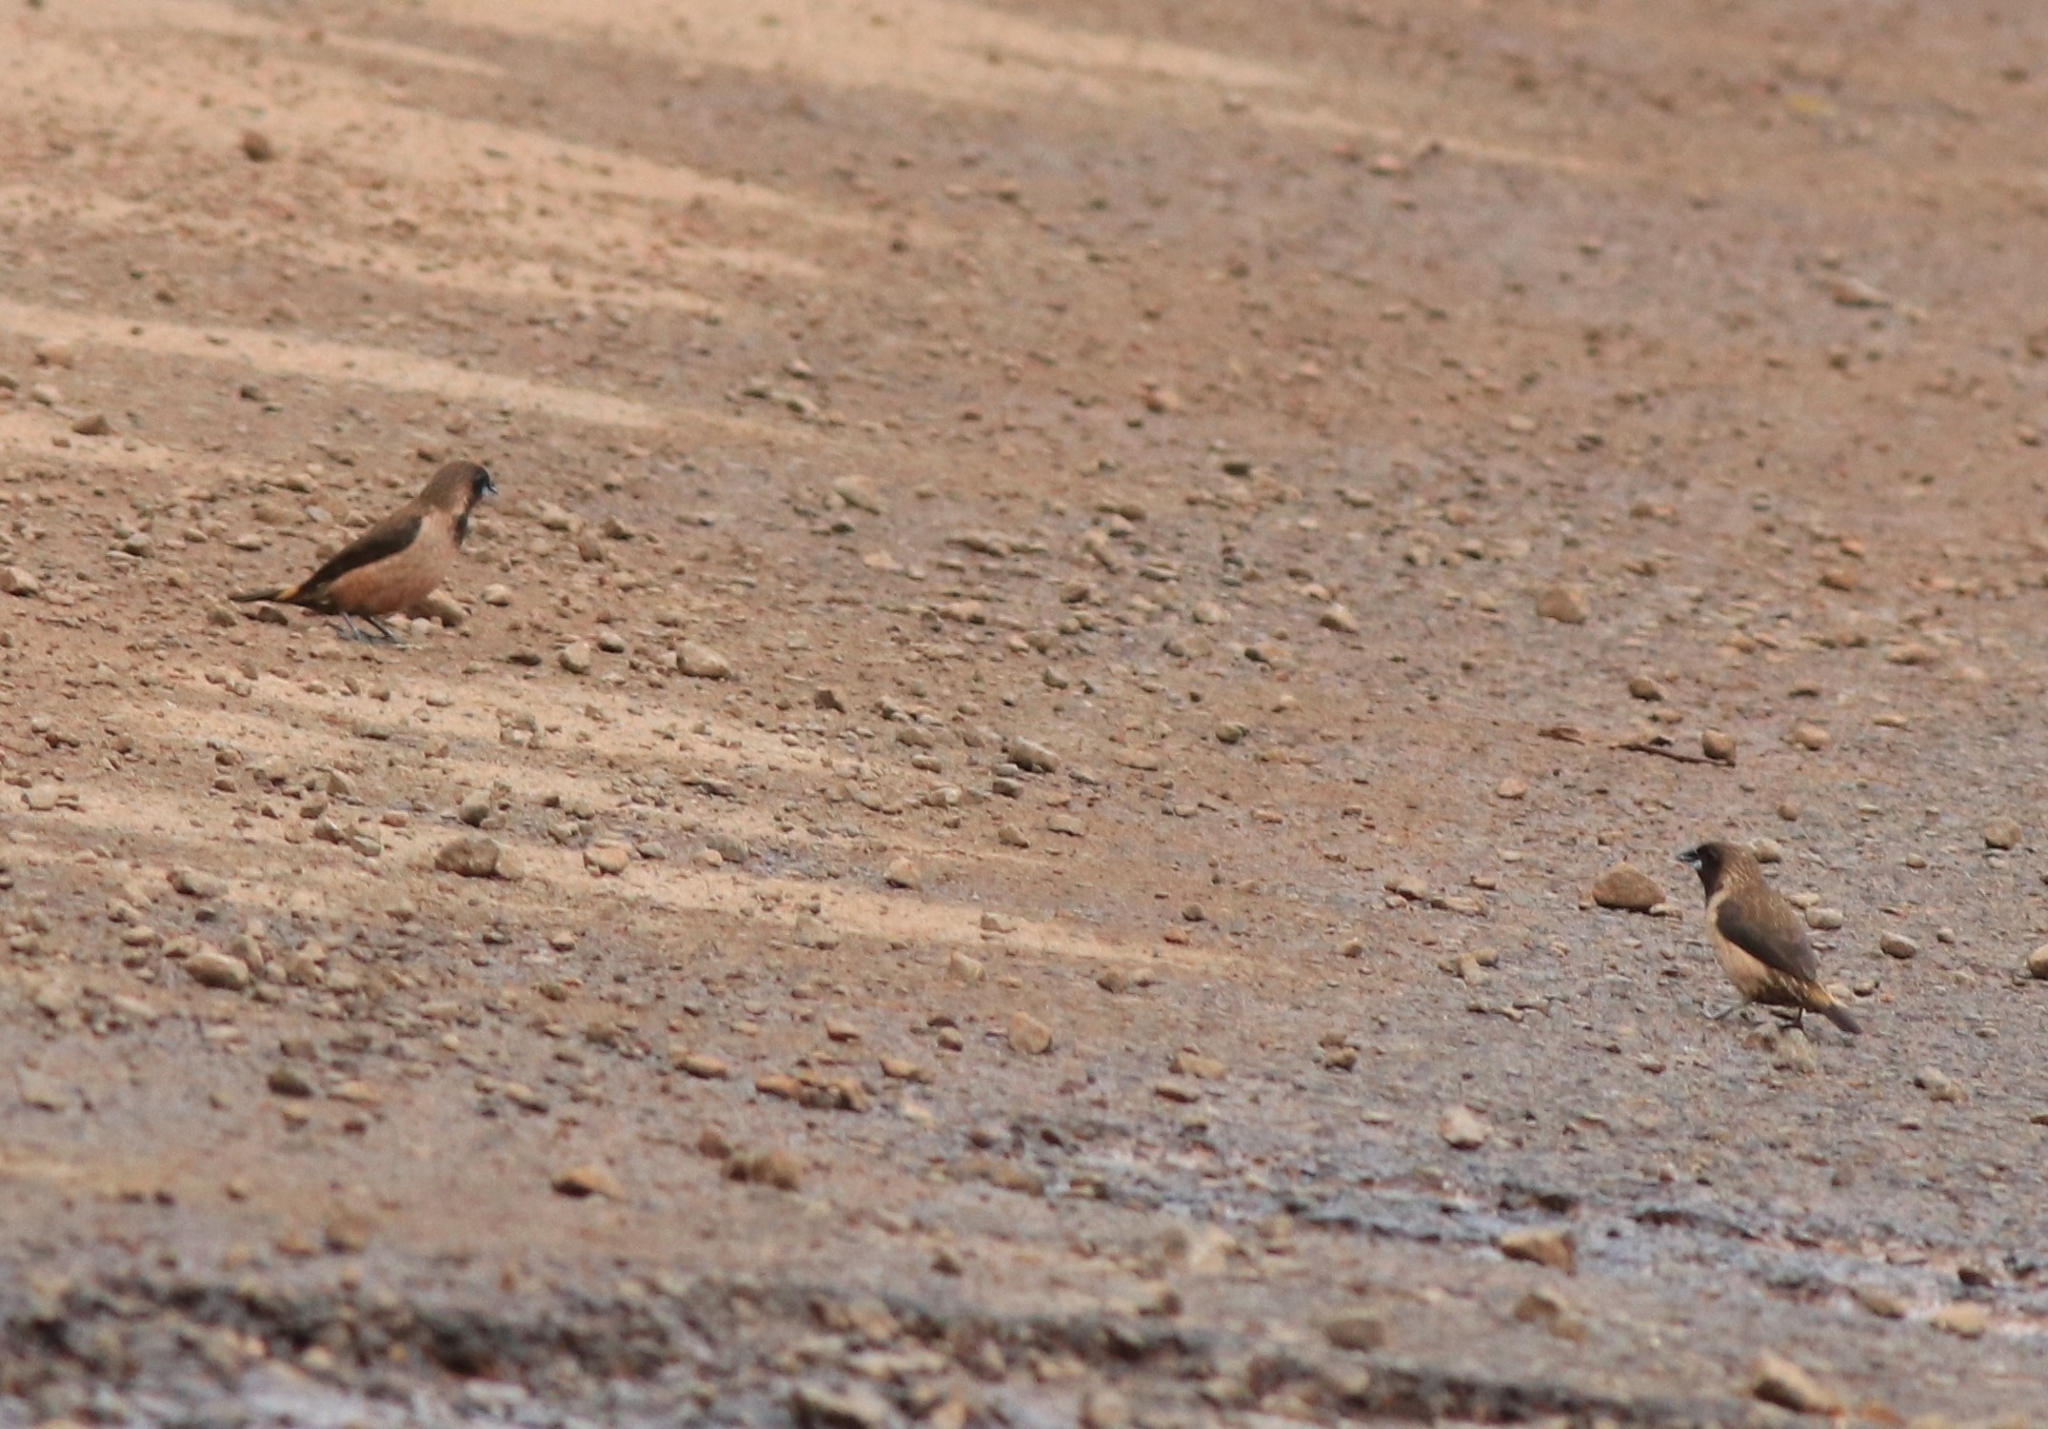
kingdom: Animalia
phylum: Chordata
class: Aves
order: Passeriformes
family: Estrildidae
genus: Lonchura
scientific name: Lonchura kelaarti
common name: Black-throated munia
